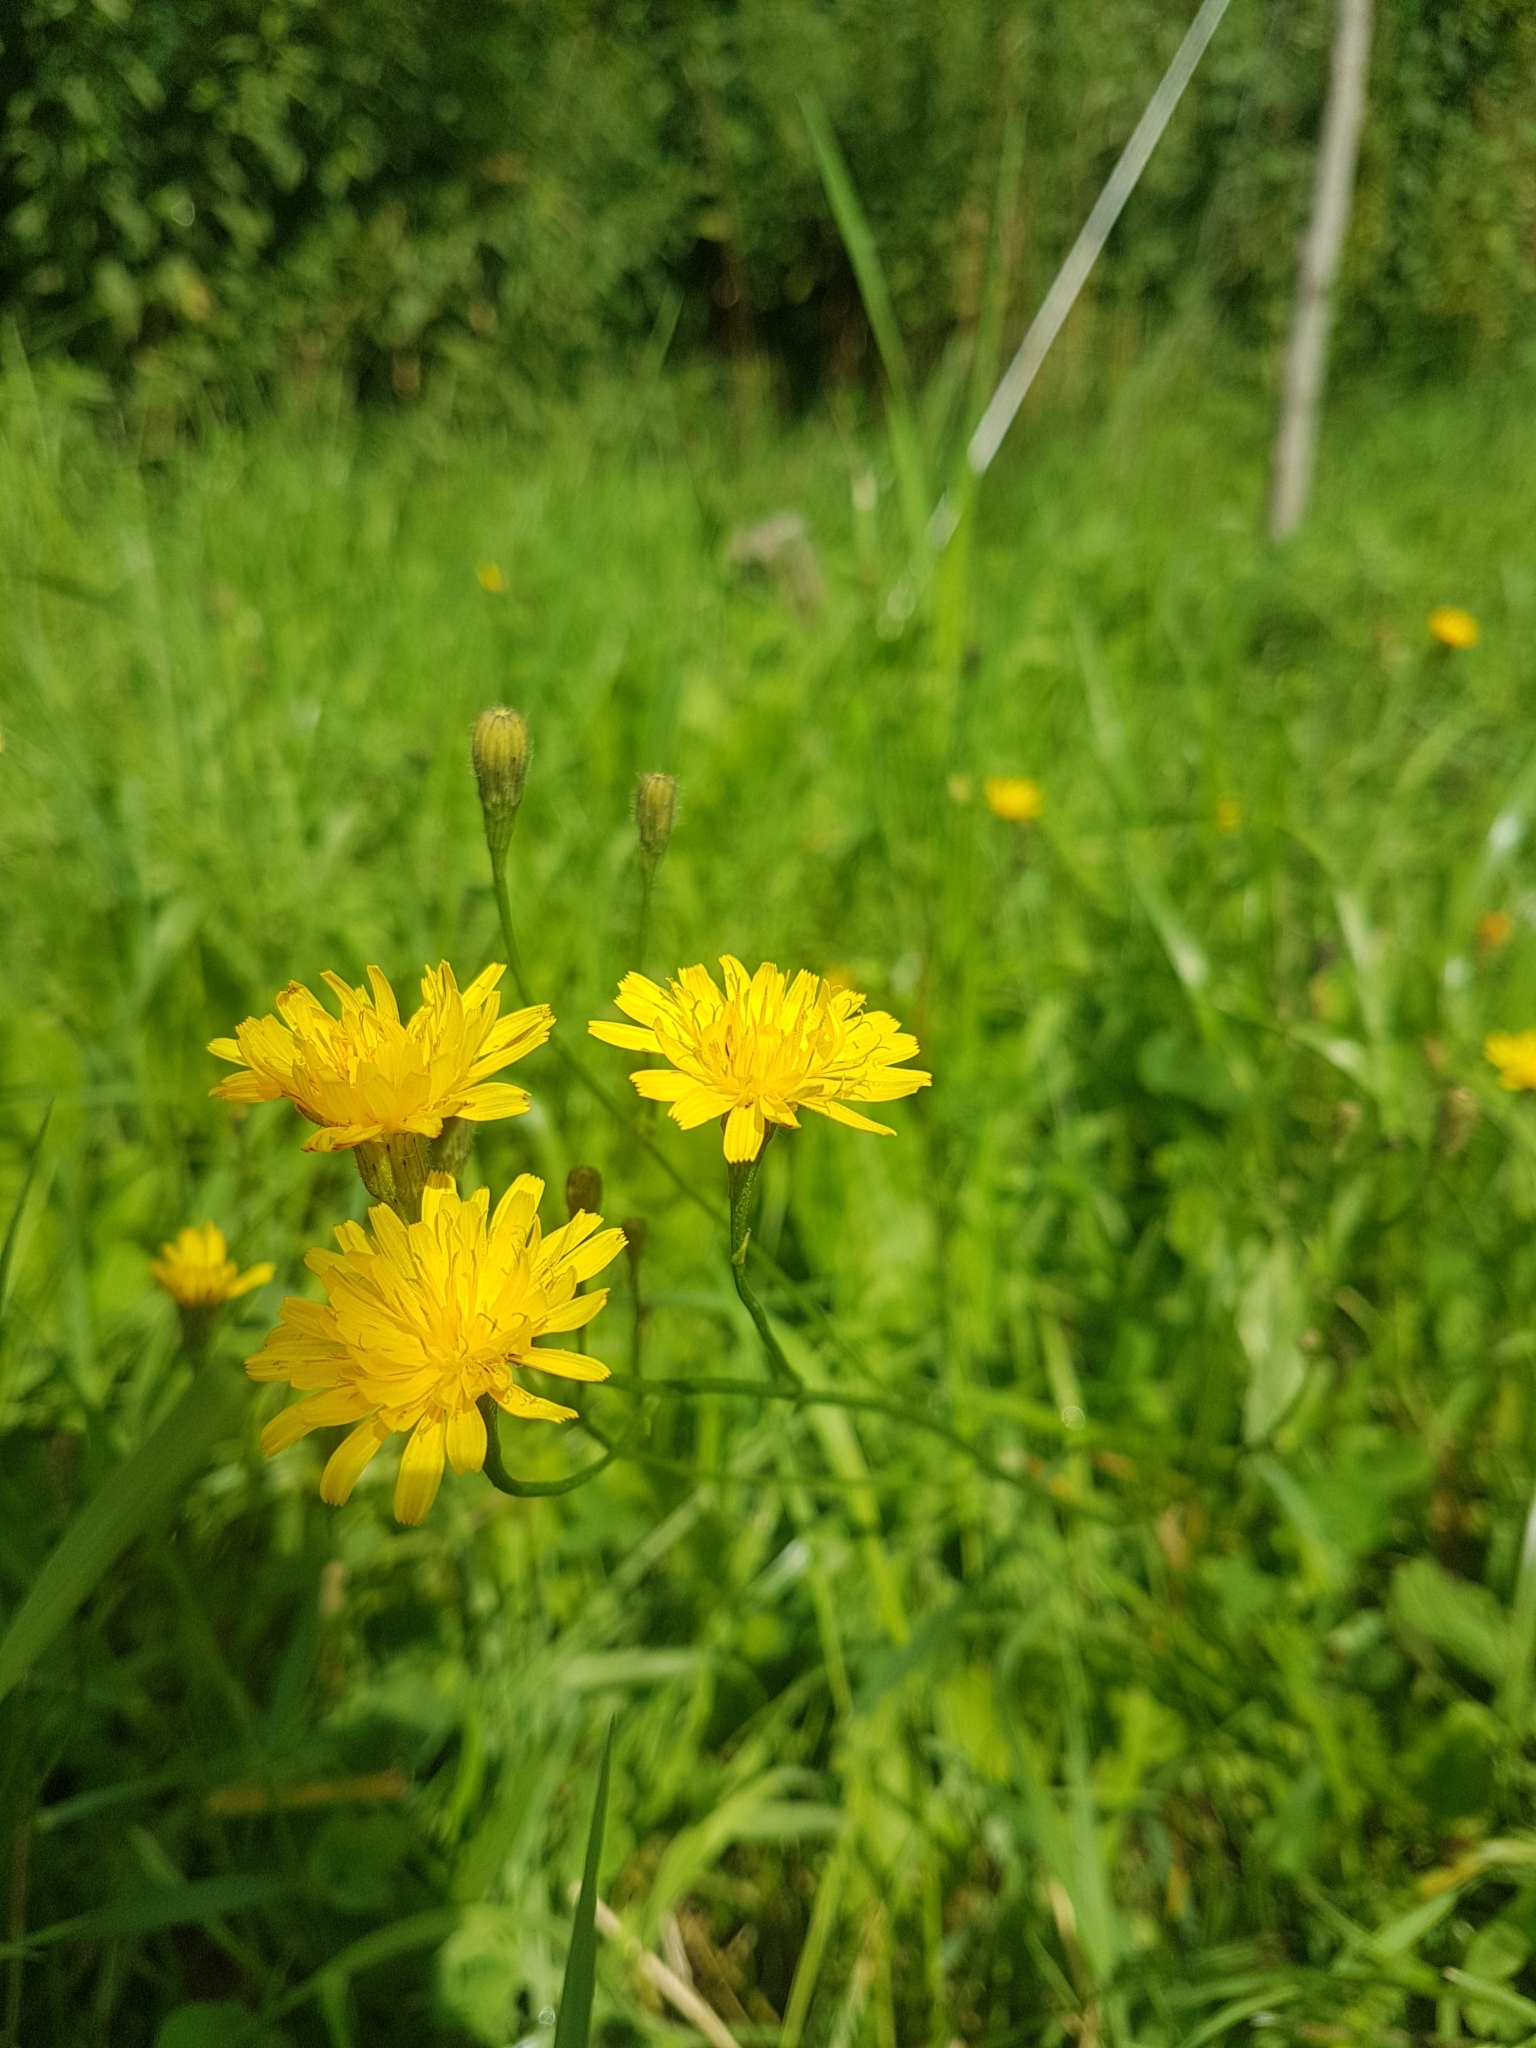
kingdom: Plantae
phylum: Tracheophyta
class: Magnoliopsida
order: Asterales
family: Asteraceae
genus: Scorzoneroides
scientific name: Scorzoneroides autumnalis
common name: Autumn hawkbit
